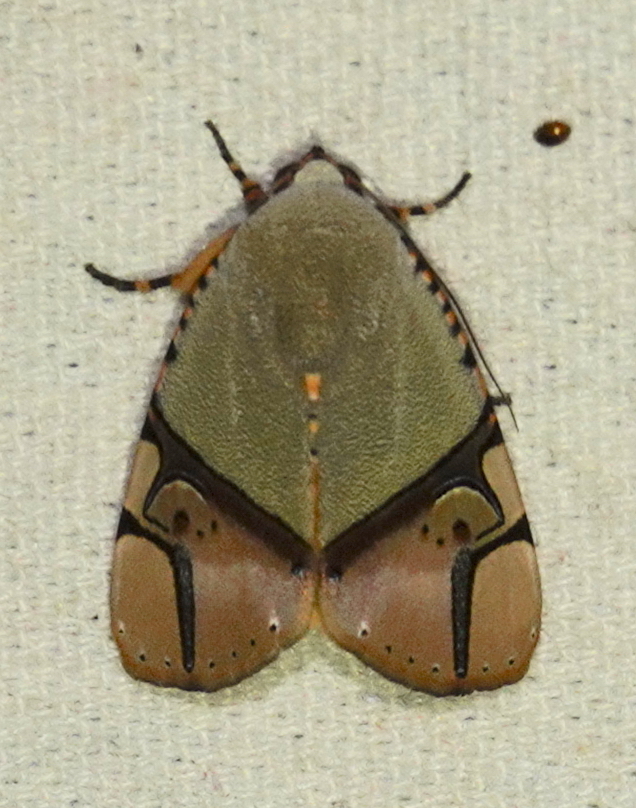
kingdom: Animalia
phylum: Arthropoda
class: Insecta
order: Lepidoptera
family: Erebidae
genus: Ramadasa
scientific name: Ramadasa pavo
